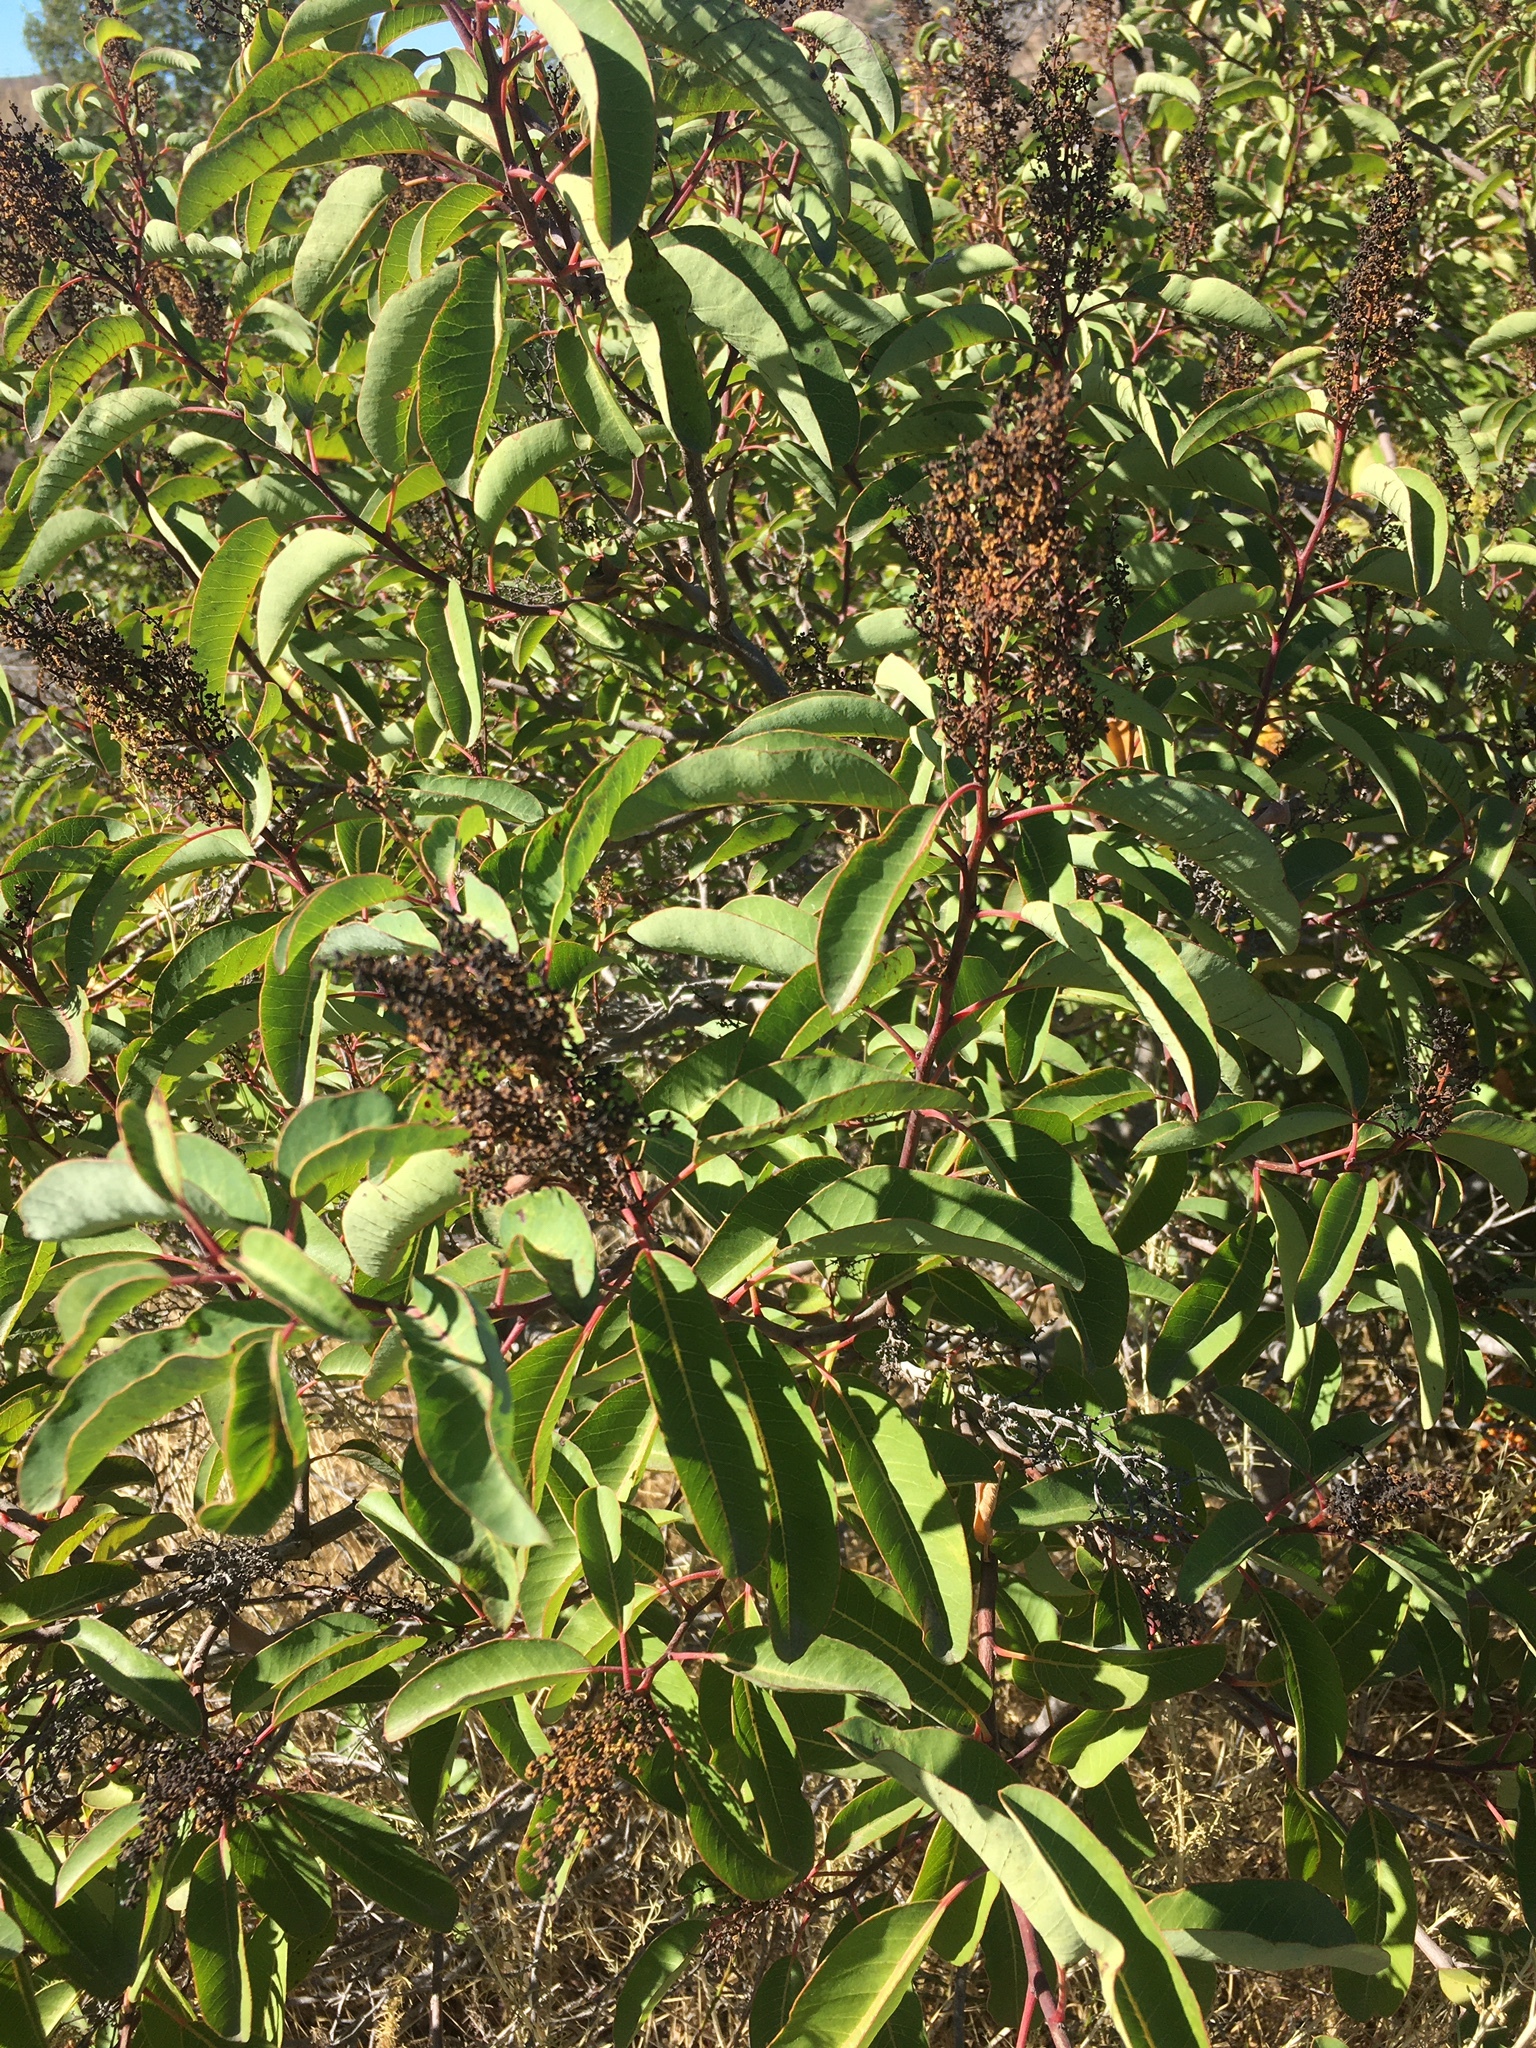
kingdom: Plantae
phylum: Tracheophyta
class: Magnoliopsida
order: Sapindales
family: Anacardiaceae
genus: Malosma
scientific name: Malosma laurina
